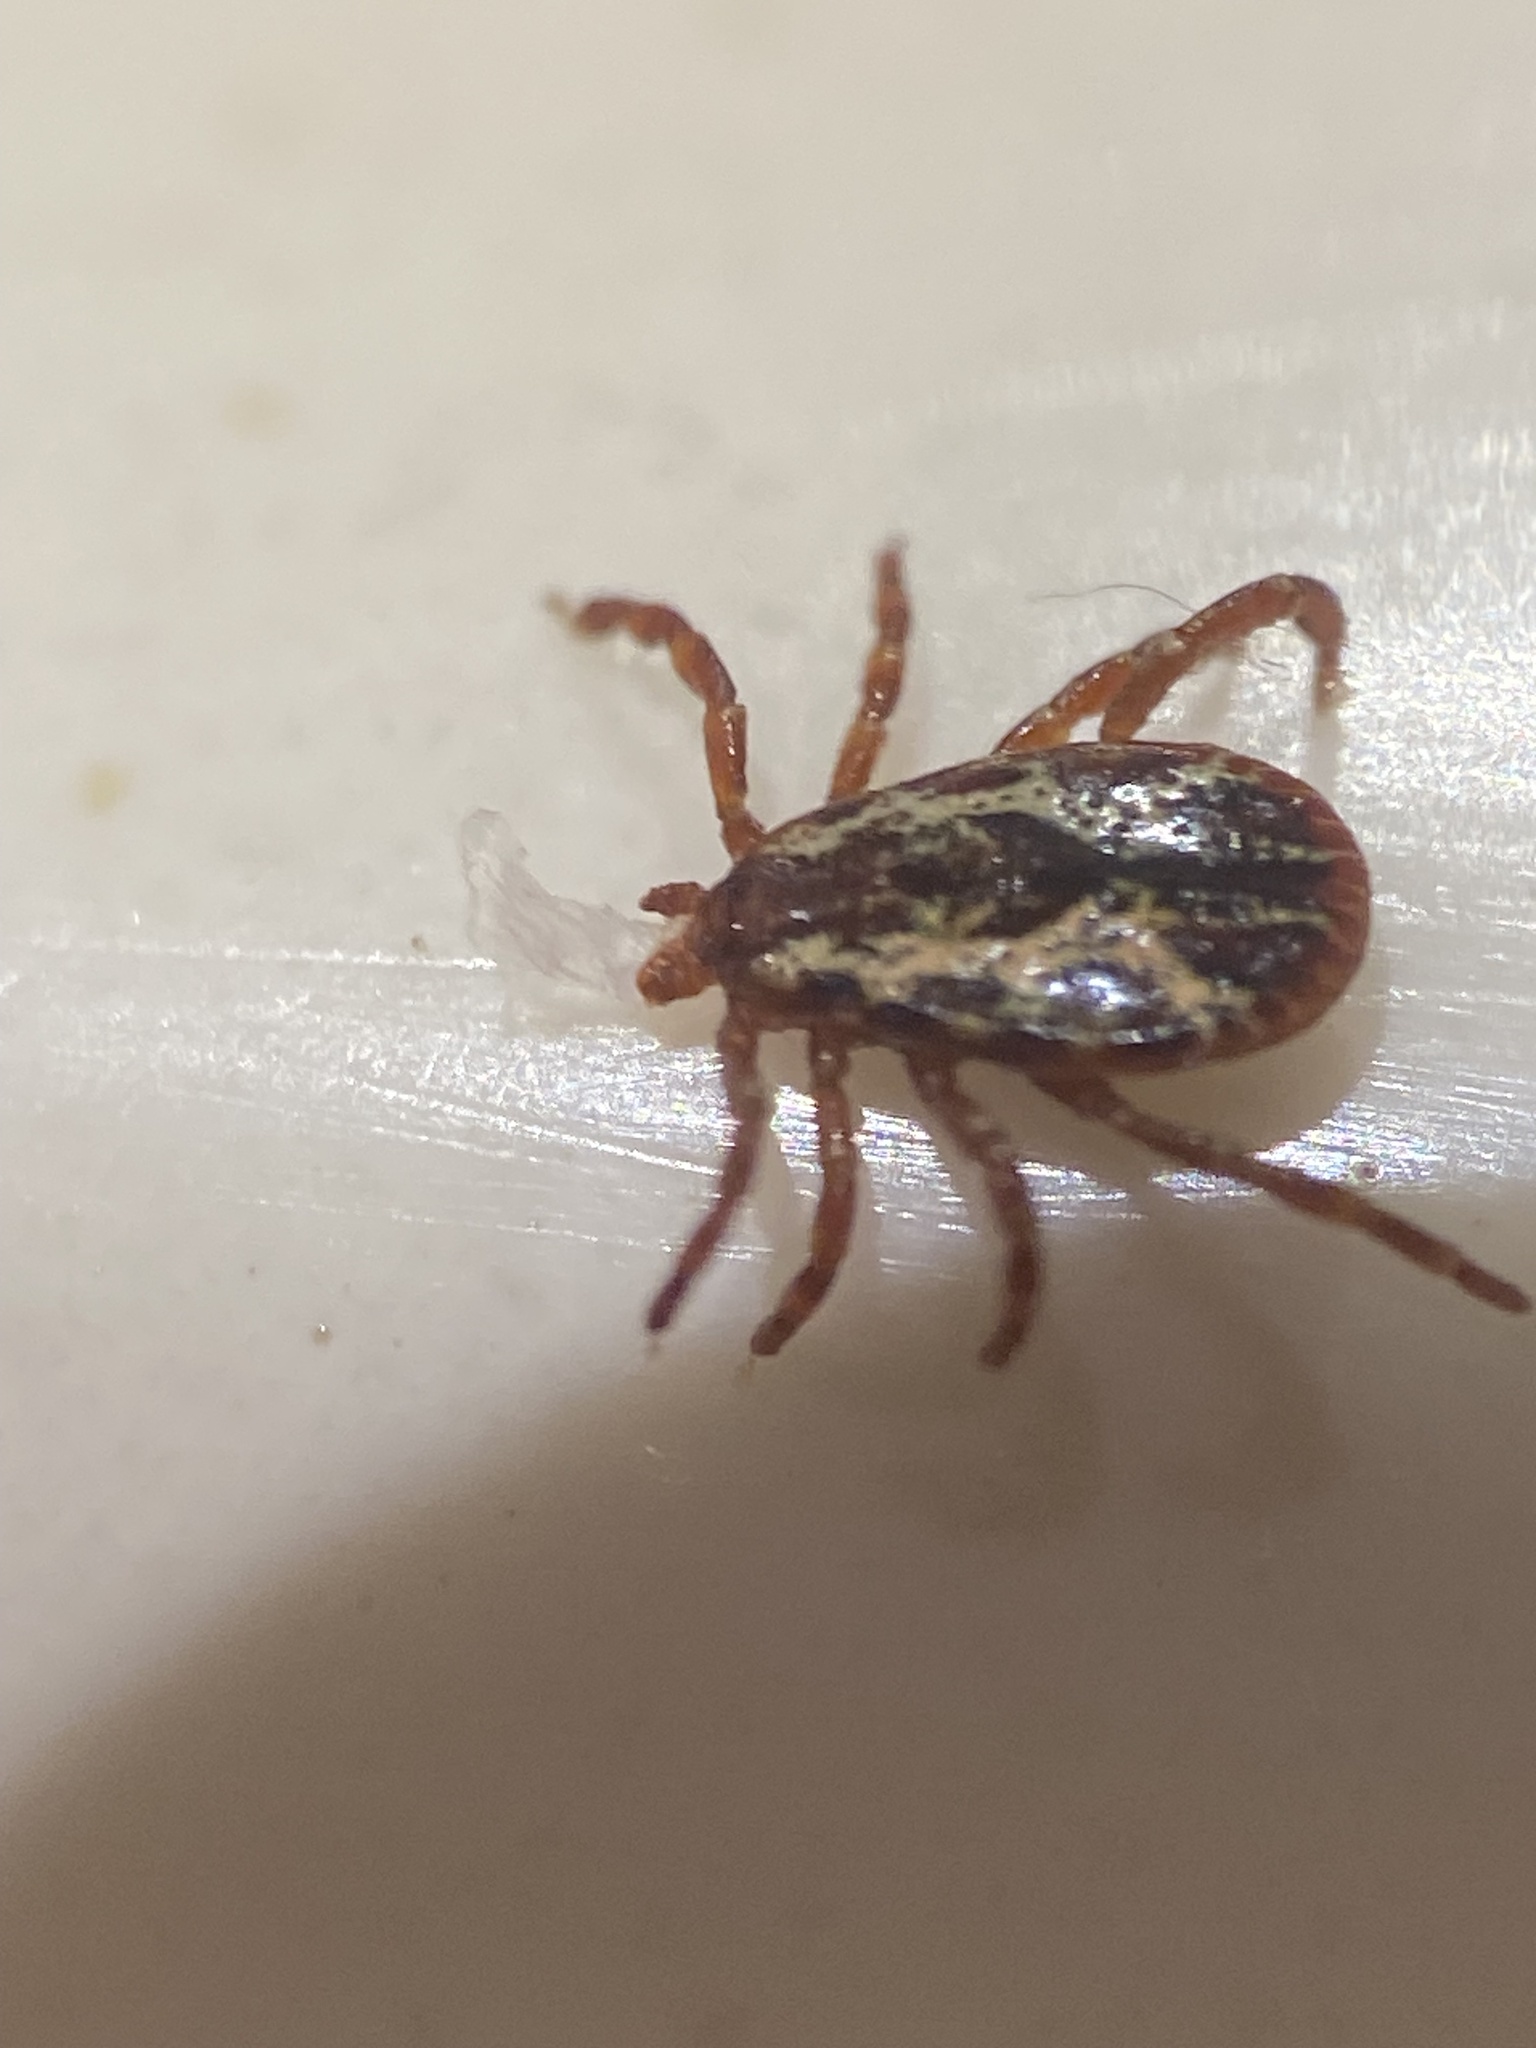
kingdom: Animalia
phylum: Arthropoda
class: Arachnida
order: Ixodida
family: Ixodidae
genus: Dermacentor
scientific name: Dermacentor similis
